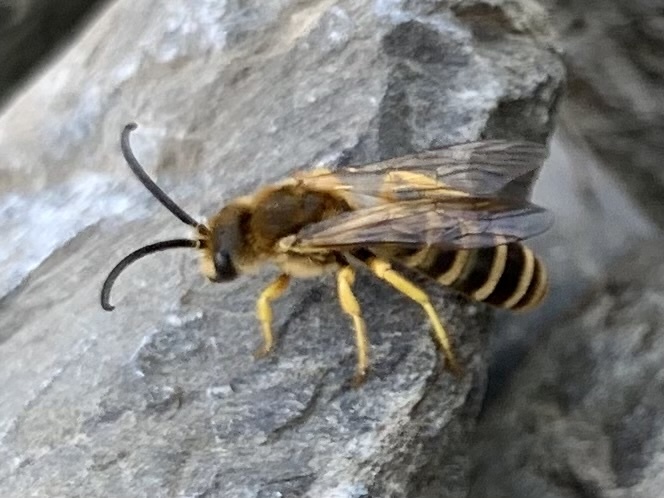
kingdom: Animalia
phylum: Arthropoda
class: Insecta
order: Hymenoptera
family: Halictidae
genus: Halictus
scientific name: Halictus scabiosae
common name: Great banded furrow bee
